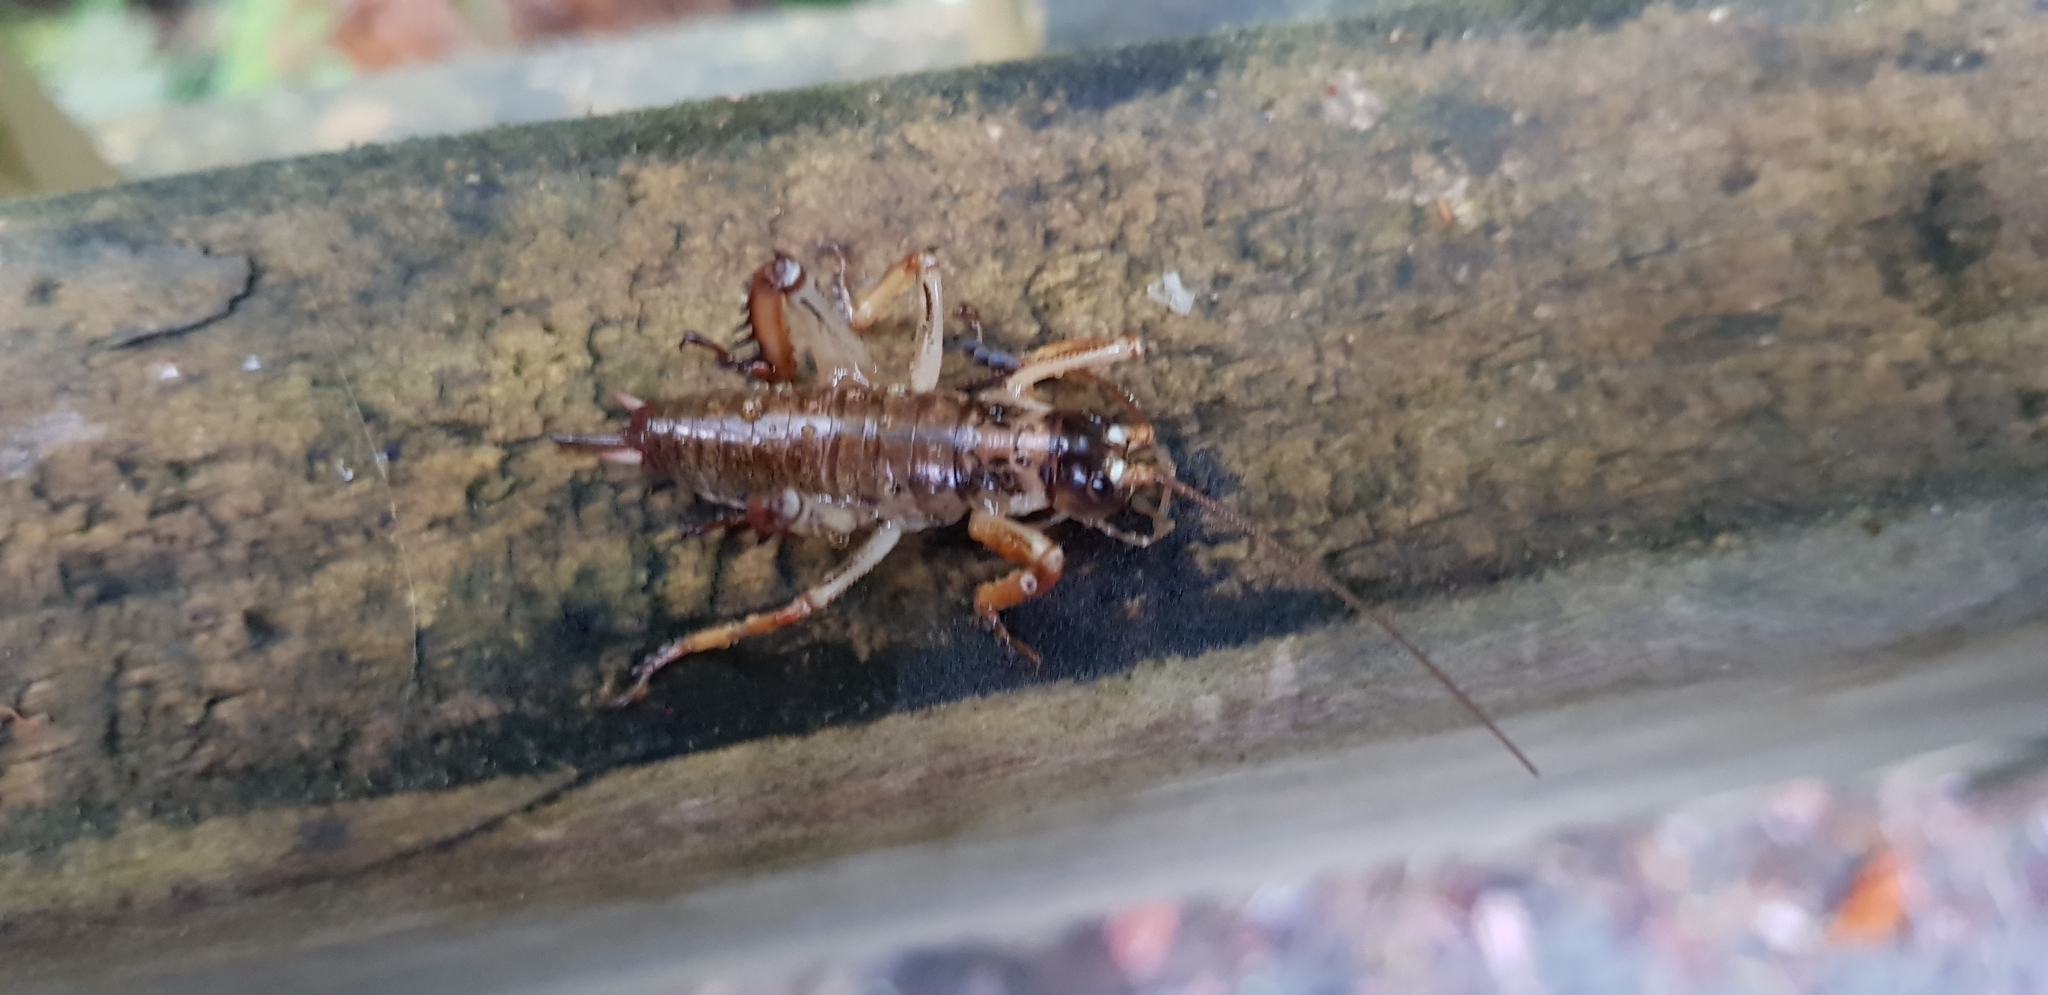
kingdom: Animalia
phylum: Arthropoda
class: Insecta
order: Orthoptera
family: Anostostomatidae
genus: Hemideina
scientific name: Hemideina thoracica
